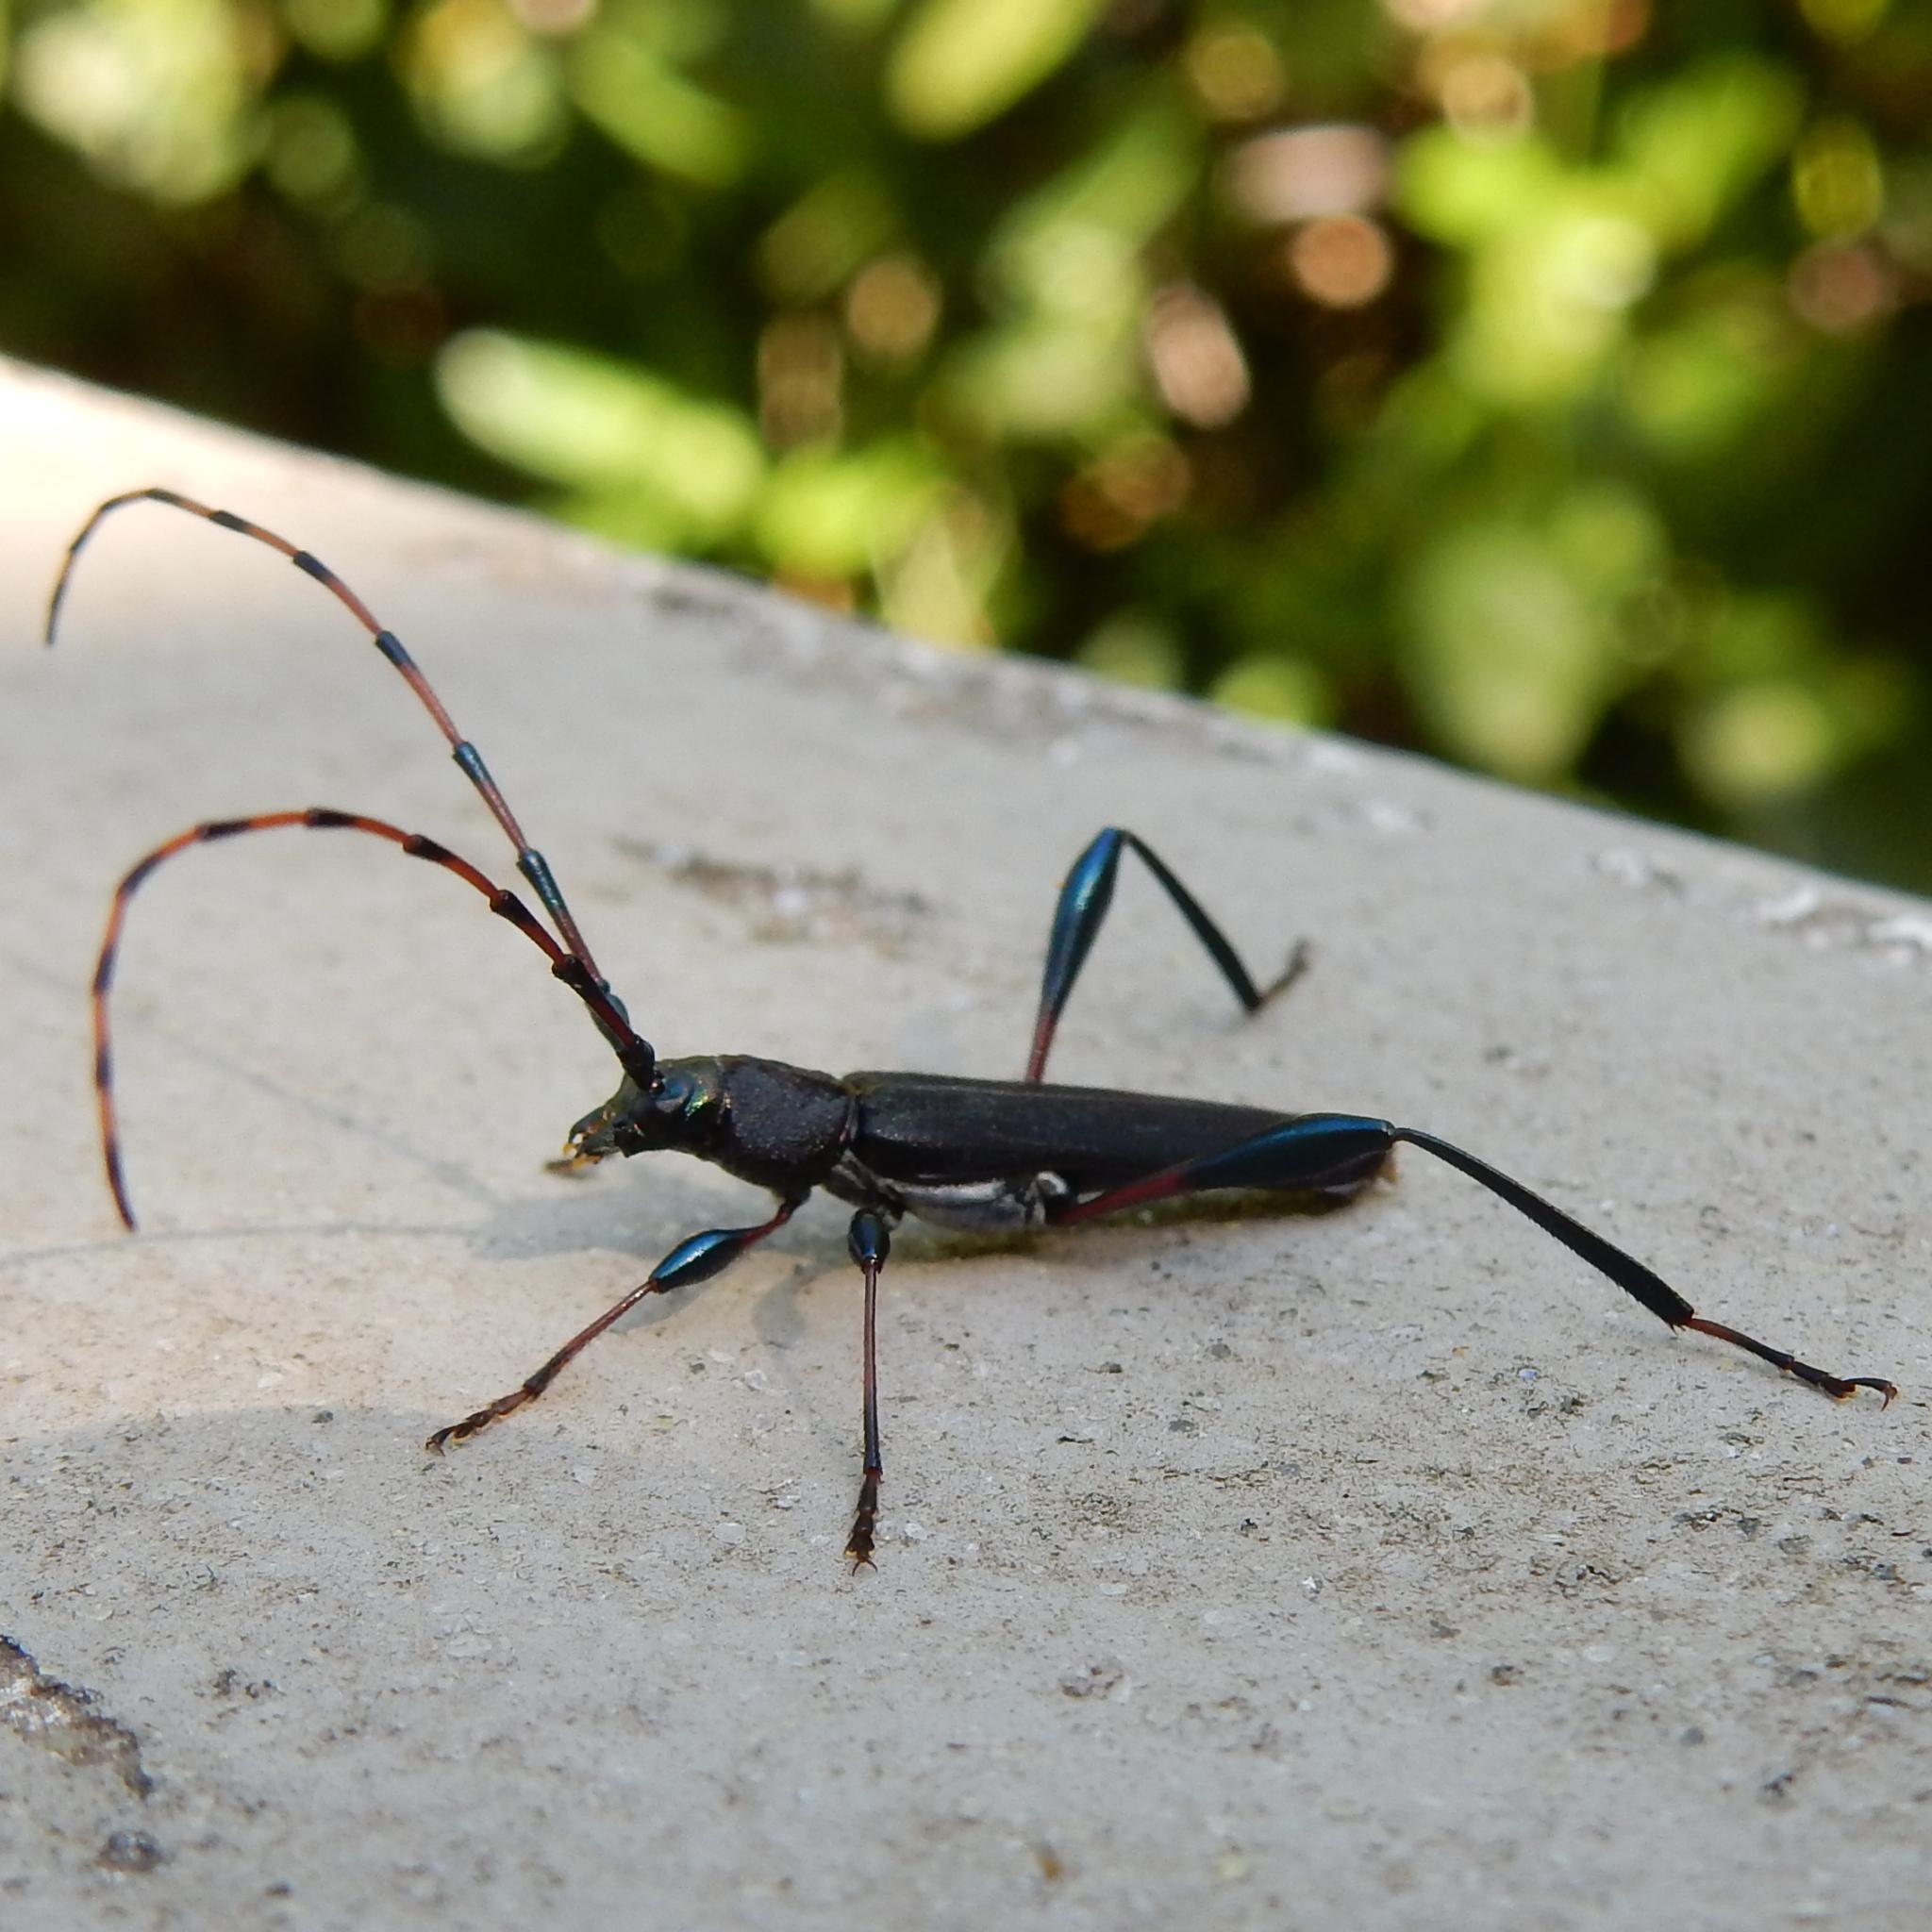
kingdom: Animalia
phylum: Arthropoda
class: Insecta
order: Coleoptera
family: Cerambycidae
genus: Litopus
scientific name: Litopus latipes
